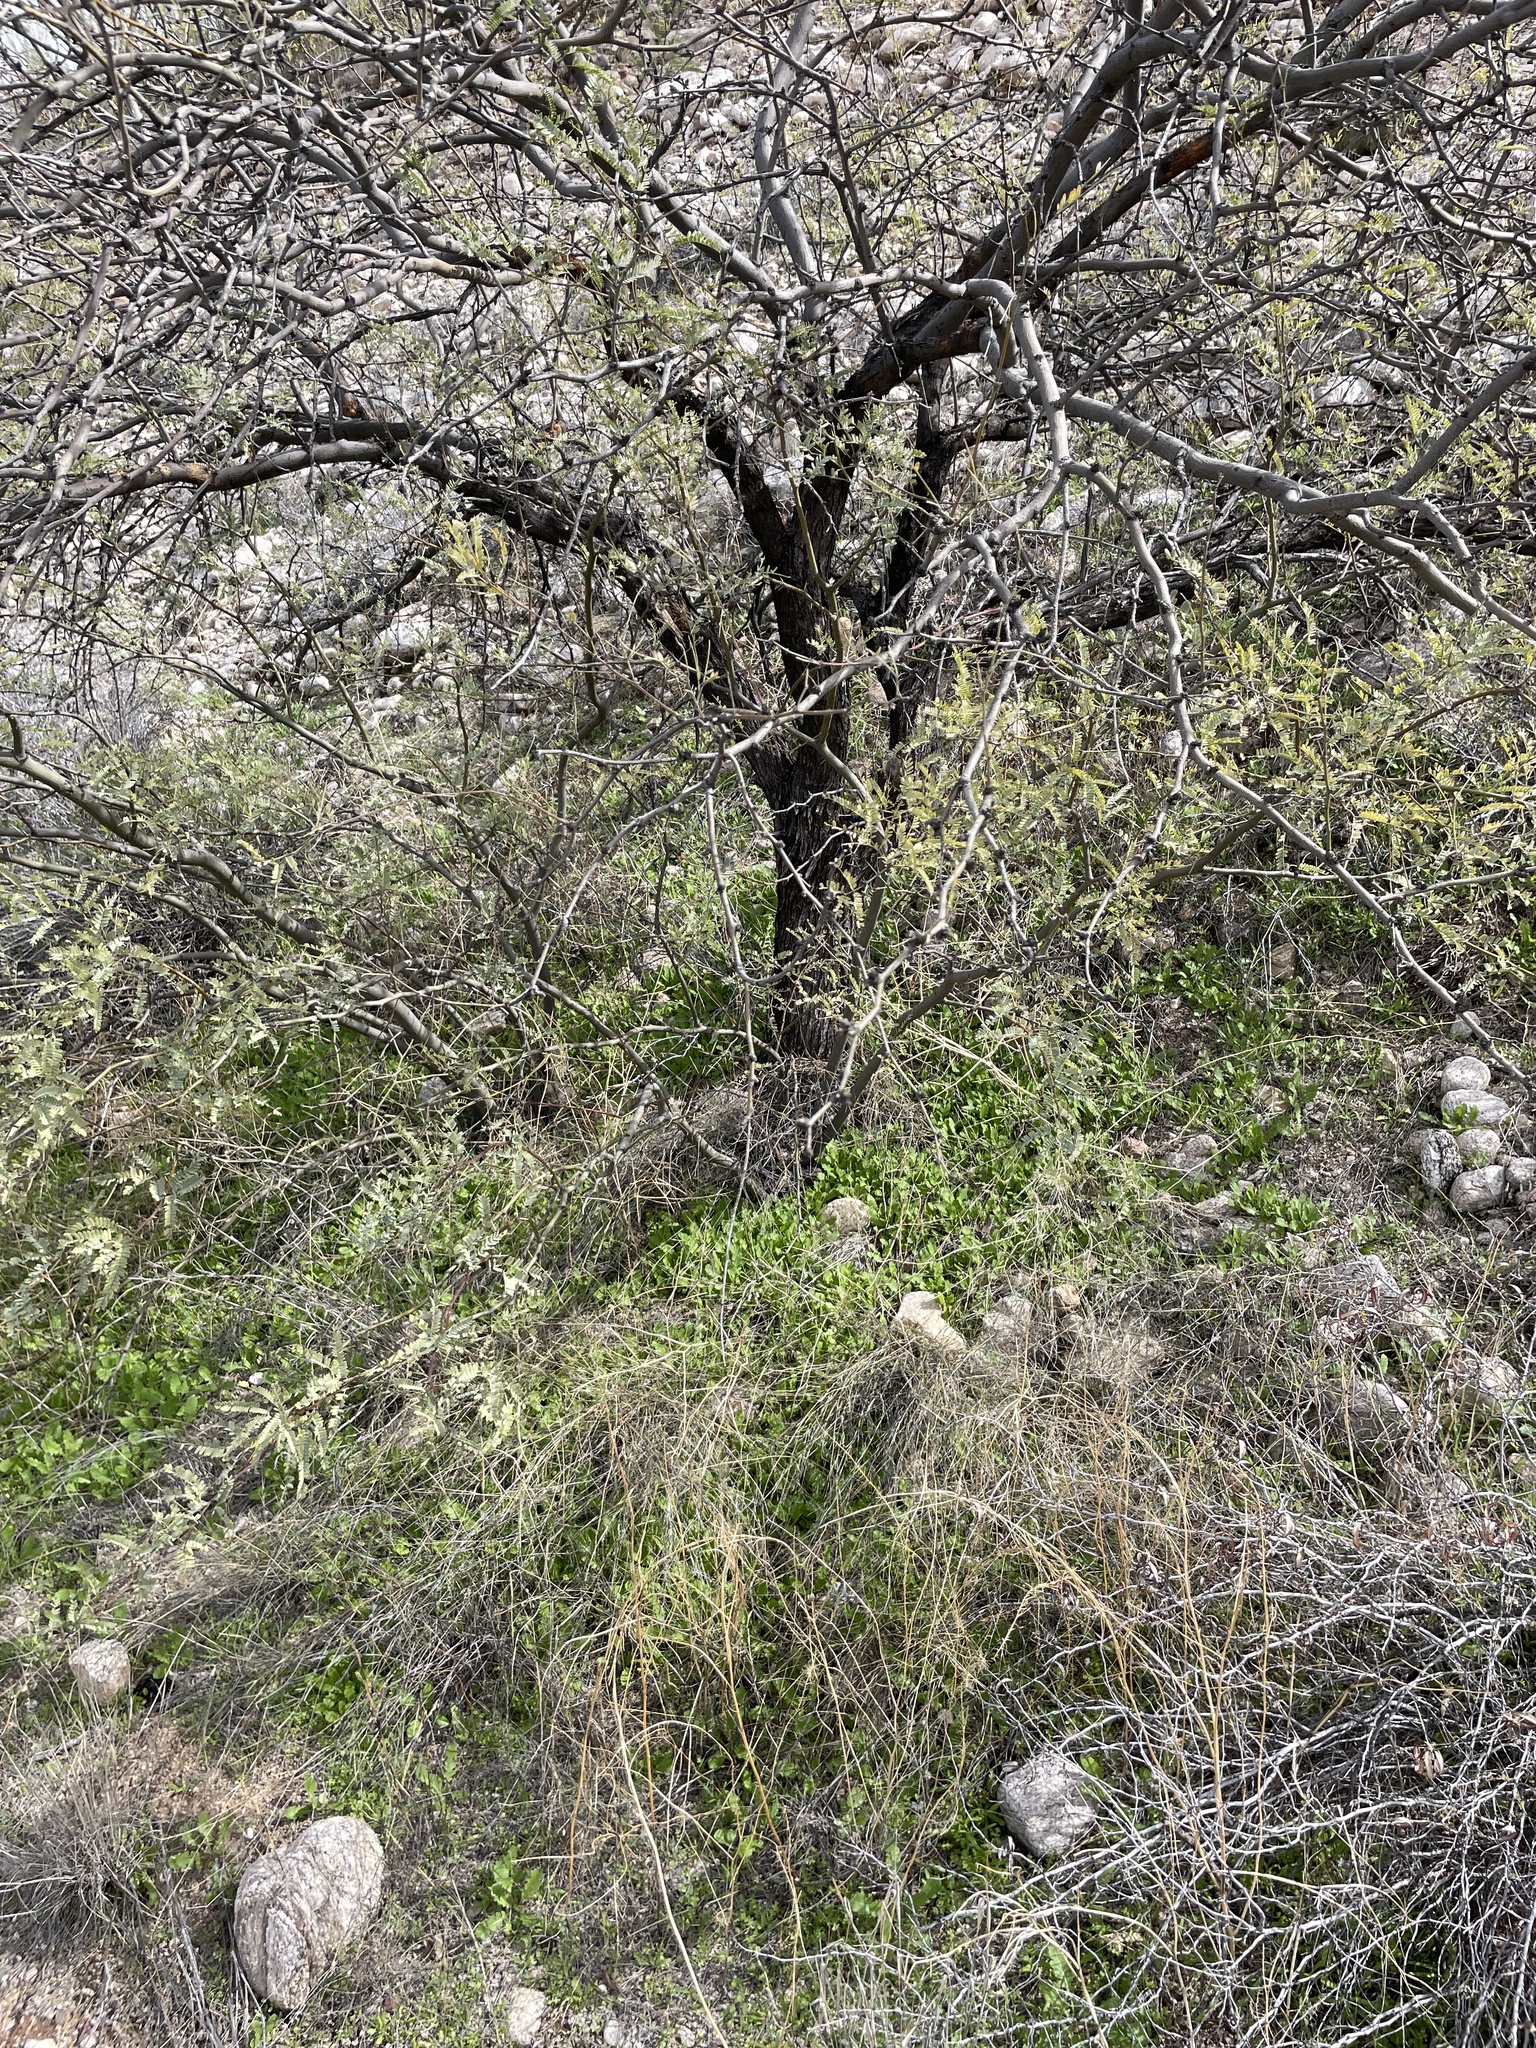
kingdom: Plantae
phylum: Tracheophyta
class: Magnoliopsida
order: Brassicales
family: Brassicaceae
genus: Brassica
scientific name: Brassica tournefortii
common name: Pale cabbage
